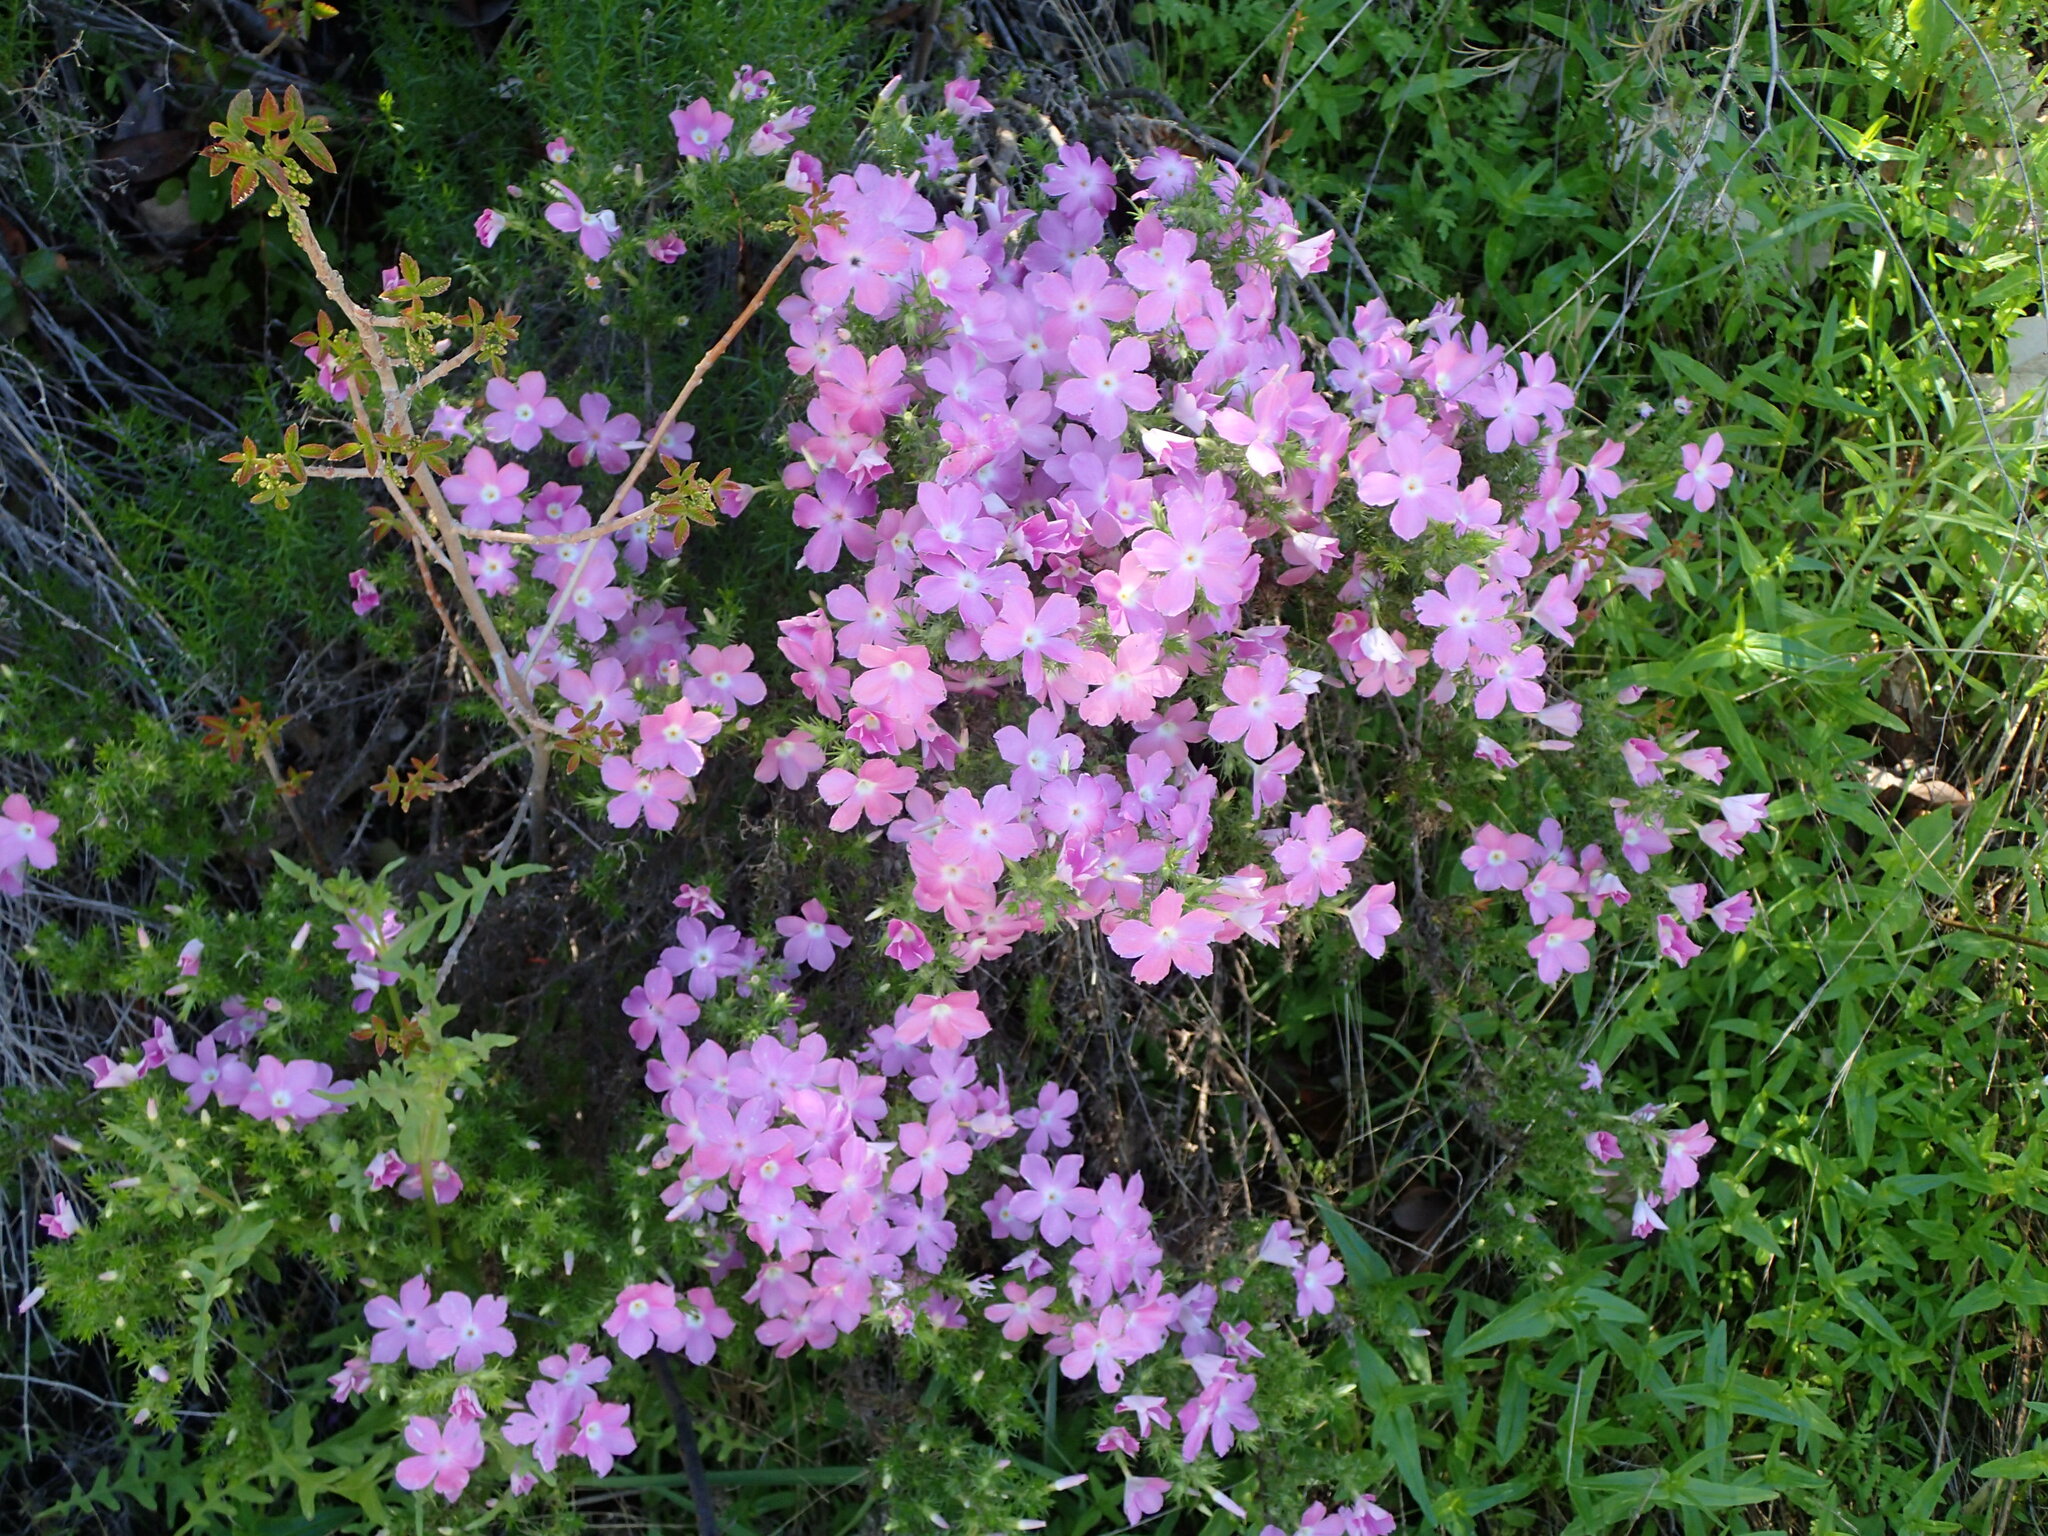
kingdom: Plantae
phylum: Tracheophyta
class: Magnoliopsida
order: Ericales
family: Polemoniaceae
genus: Linanthus
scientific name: Linanthus californicus
